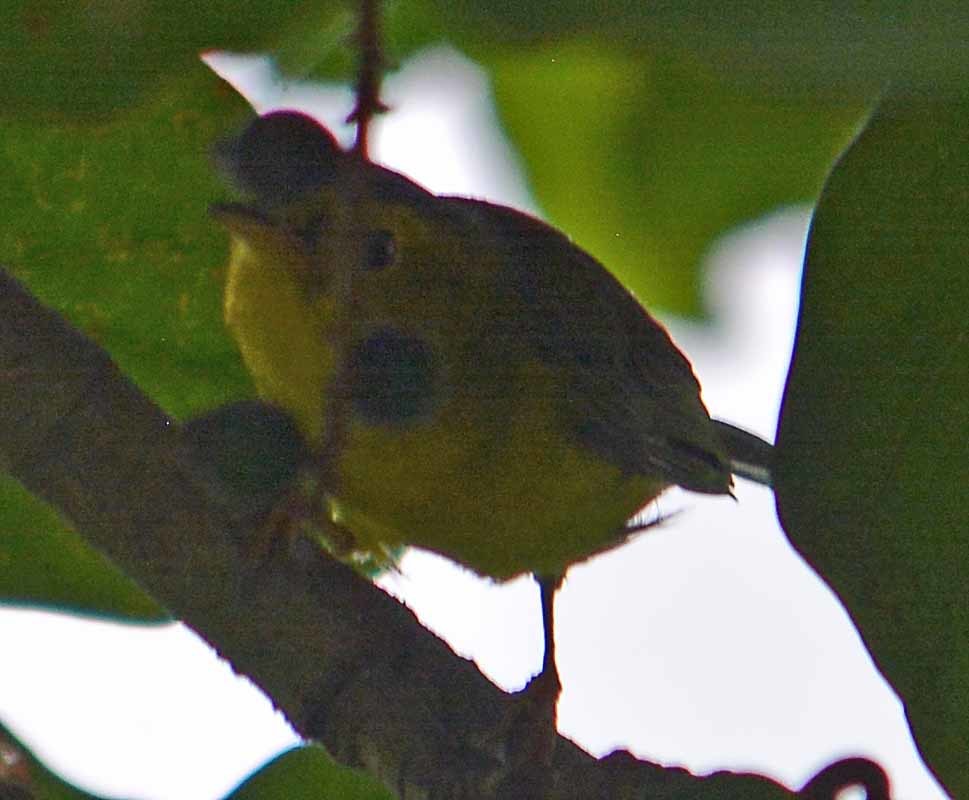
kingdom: Animalia
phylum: Chordata
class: Aves
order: Passeriformes
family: Parulidae
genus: Setophaga
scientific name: Setophaga citrina
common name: Hooded warbler
